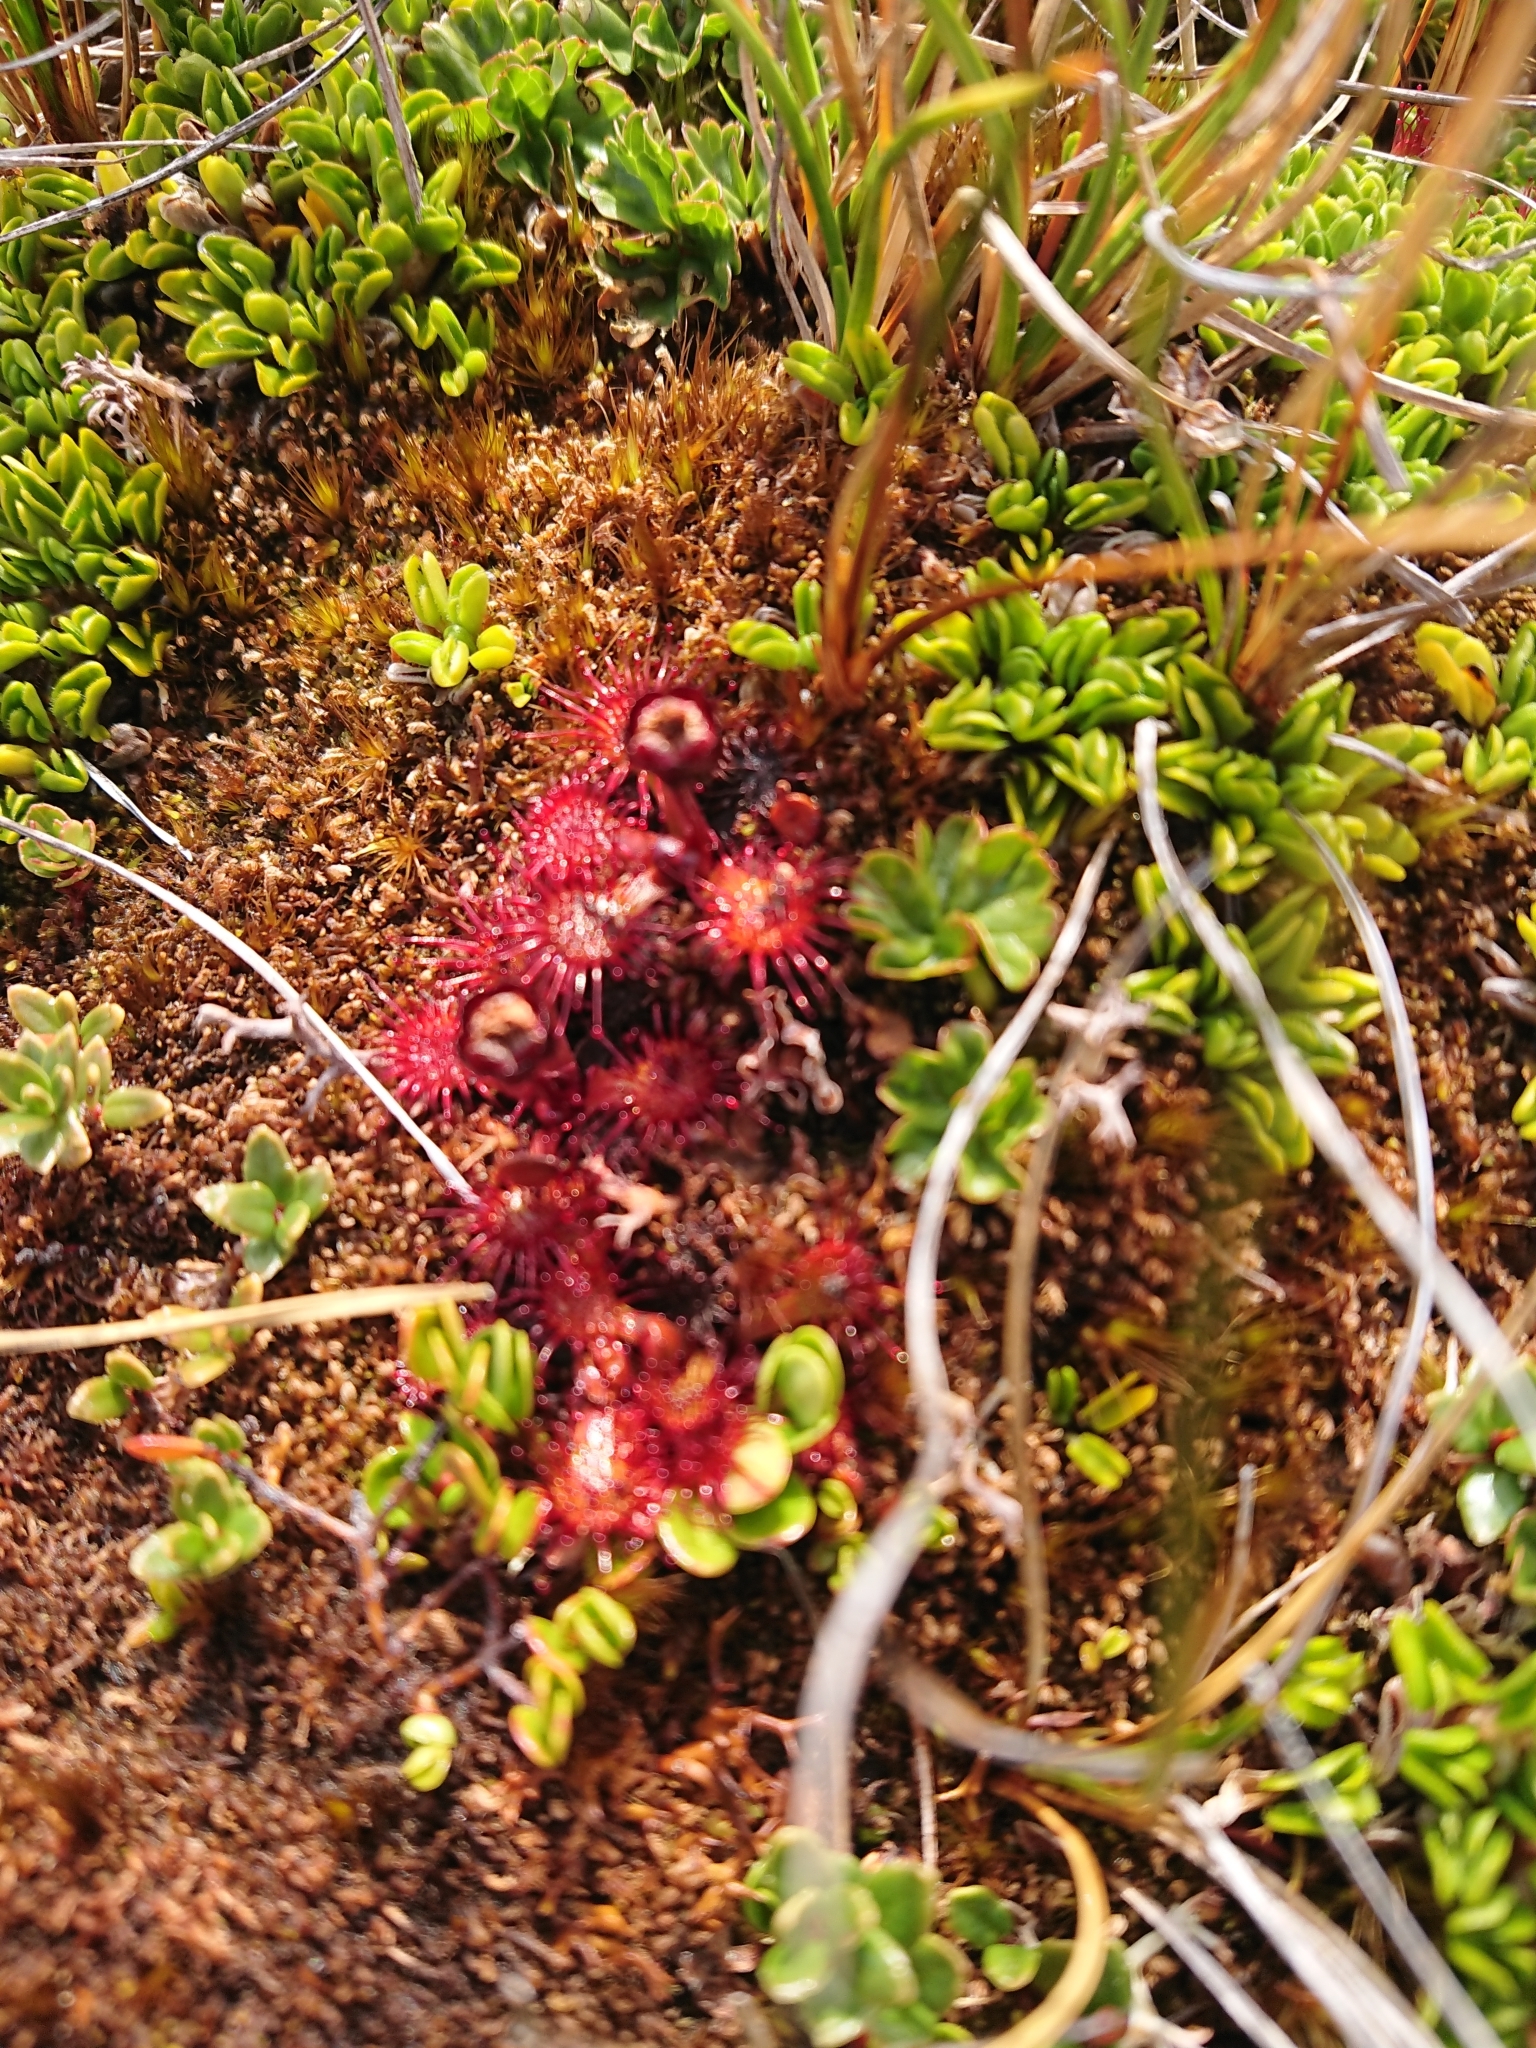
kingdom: Plantae
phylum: Tracheophyta
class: Magnoliopsida
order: Caryophyllales
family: Droseraceae
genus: Drosera
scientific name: Drosera uniflora
